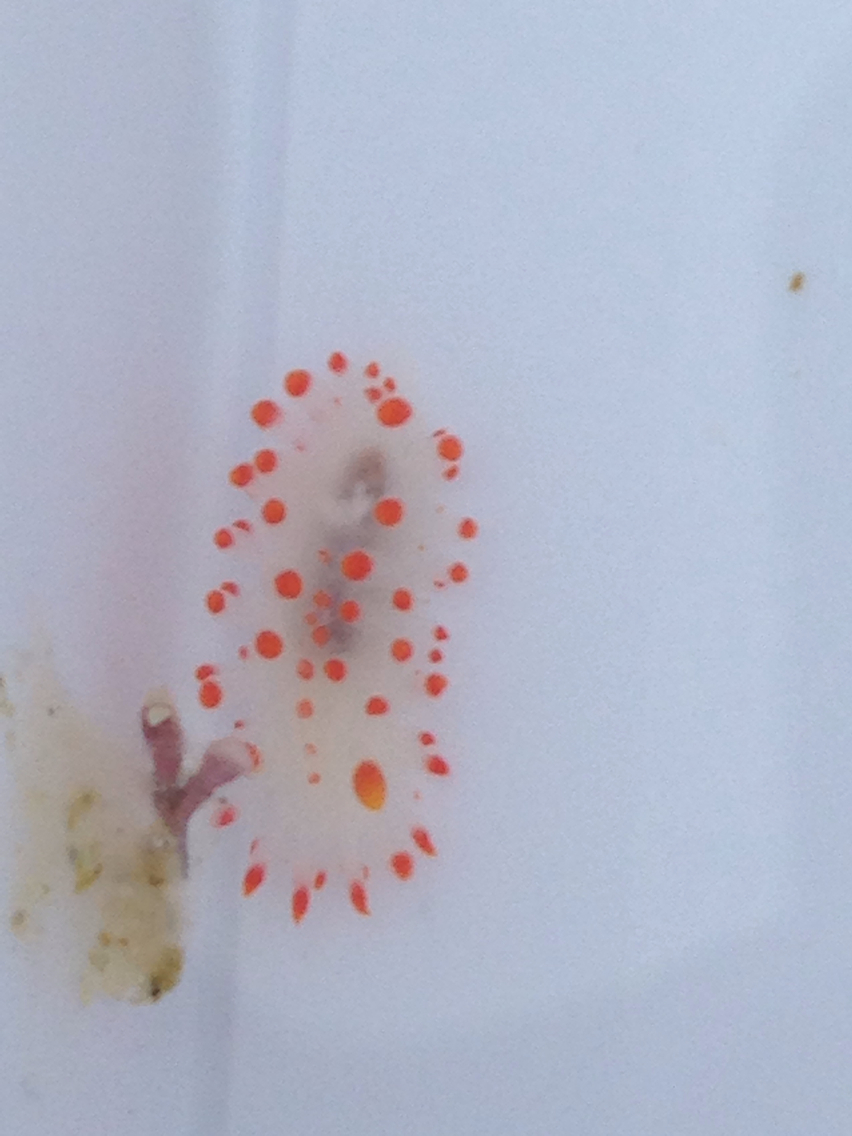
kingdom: Animalia
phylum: Mollusca
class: Gastropoda
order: Nudibranchia
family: Polyceridae
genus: Limacia
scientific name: Limacia mcdonaldi
